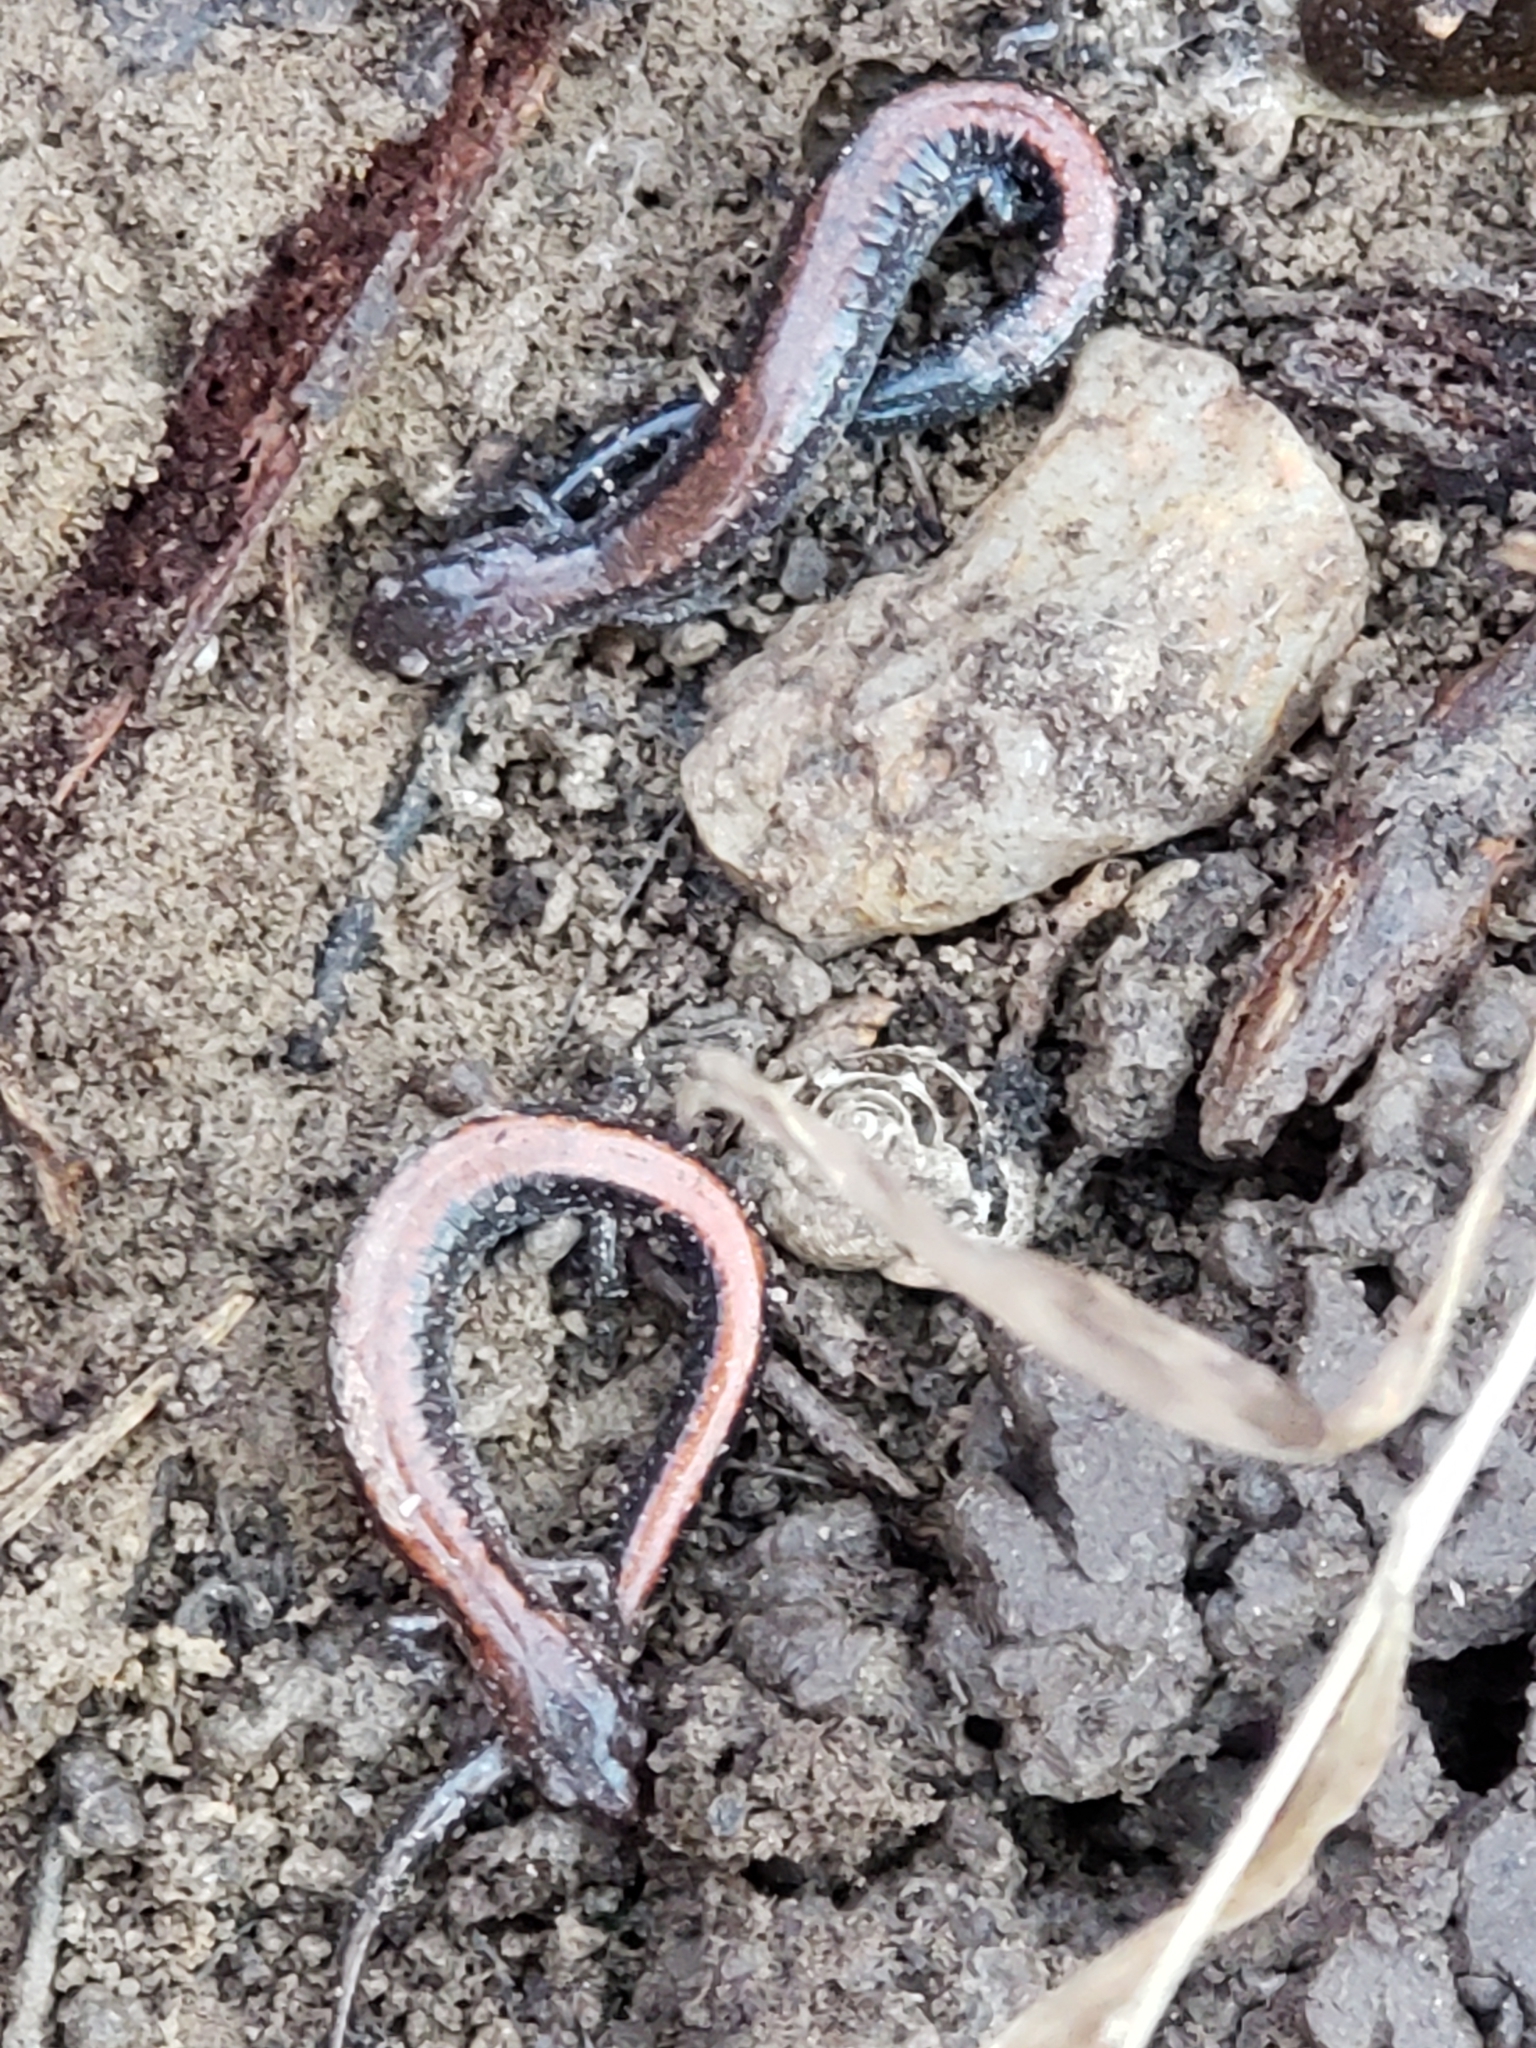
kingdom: Animalia
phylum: Chordata
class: Amphibia
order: Caudata
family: Plethodontidae
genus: Plethodon
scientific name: Plethodon cinereus
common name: Redback salamander
